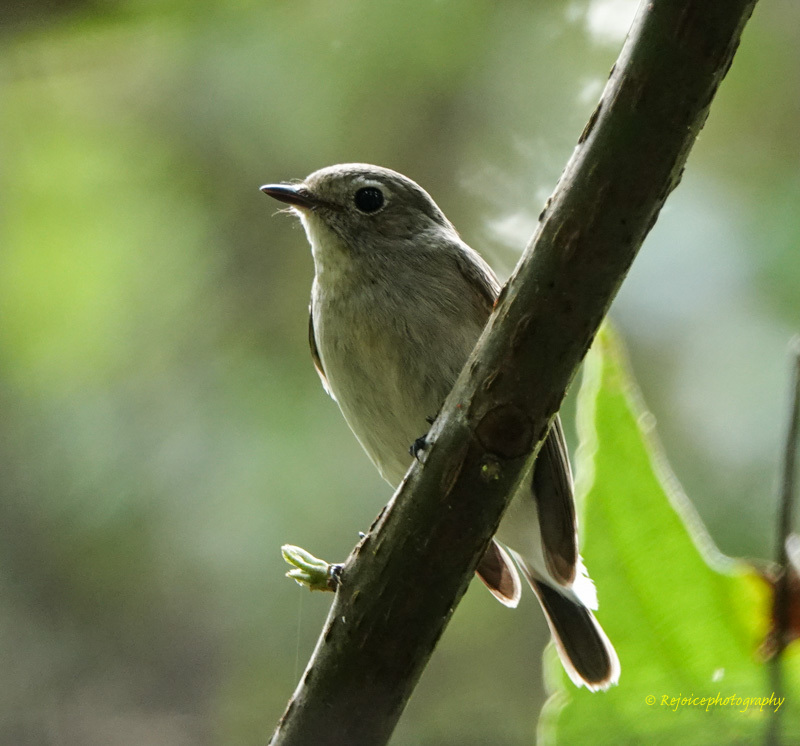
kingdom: Animalia
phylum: Chordata
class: Aves
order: Passeriformes
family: Muscicapidae
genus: Ficedula
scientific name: Ficedula albicilla
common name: Taiga flycatcher
